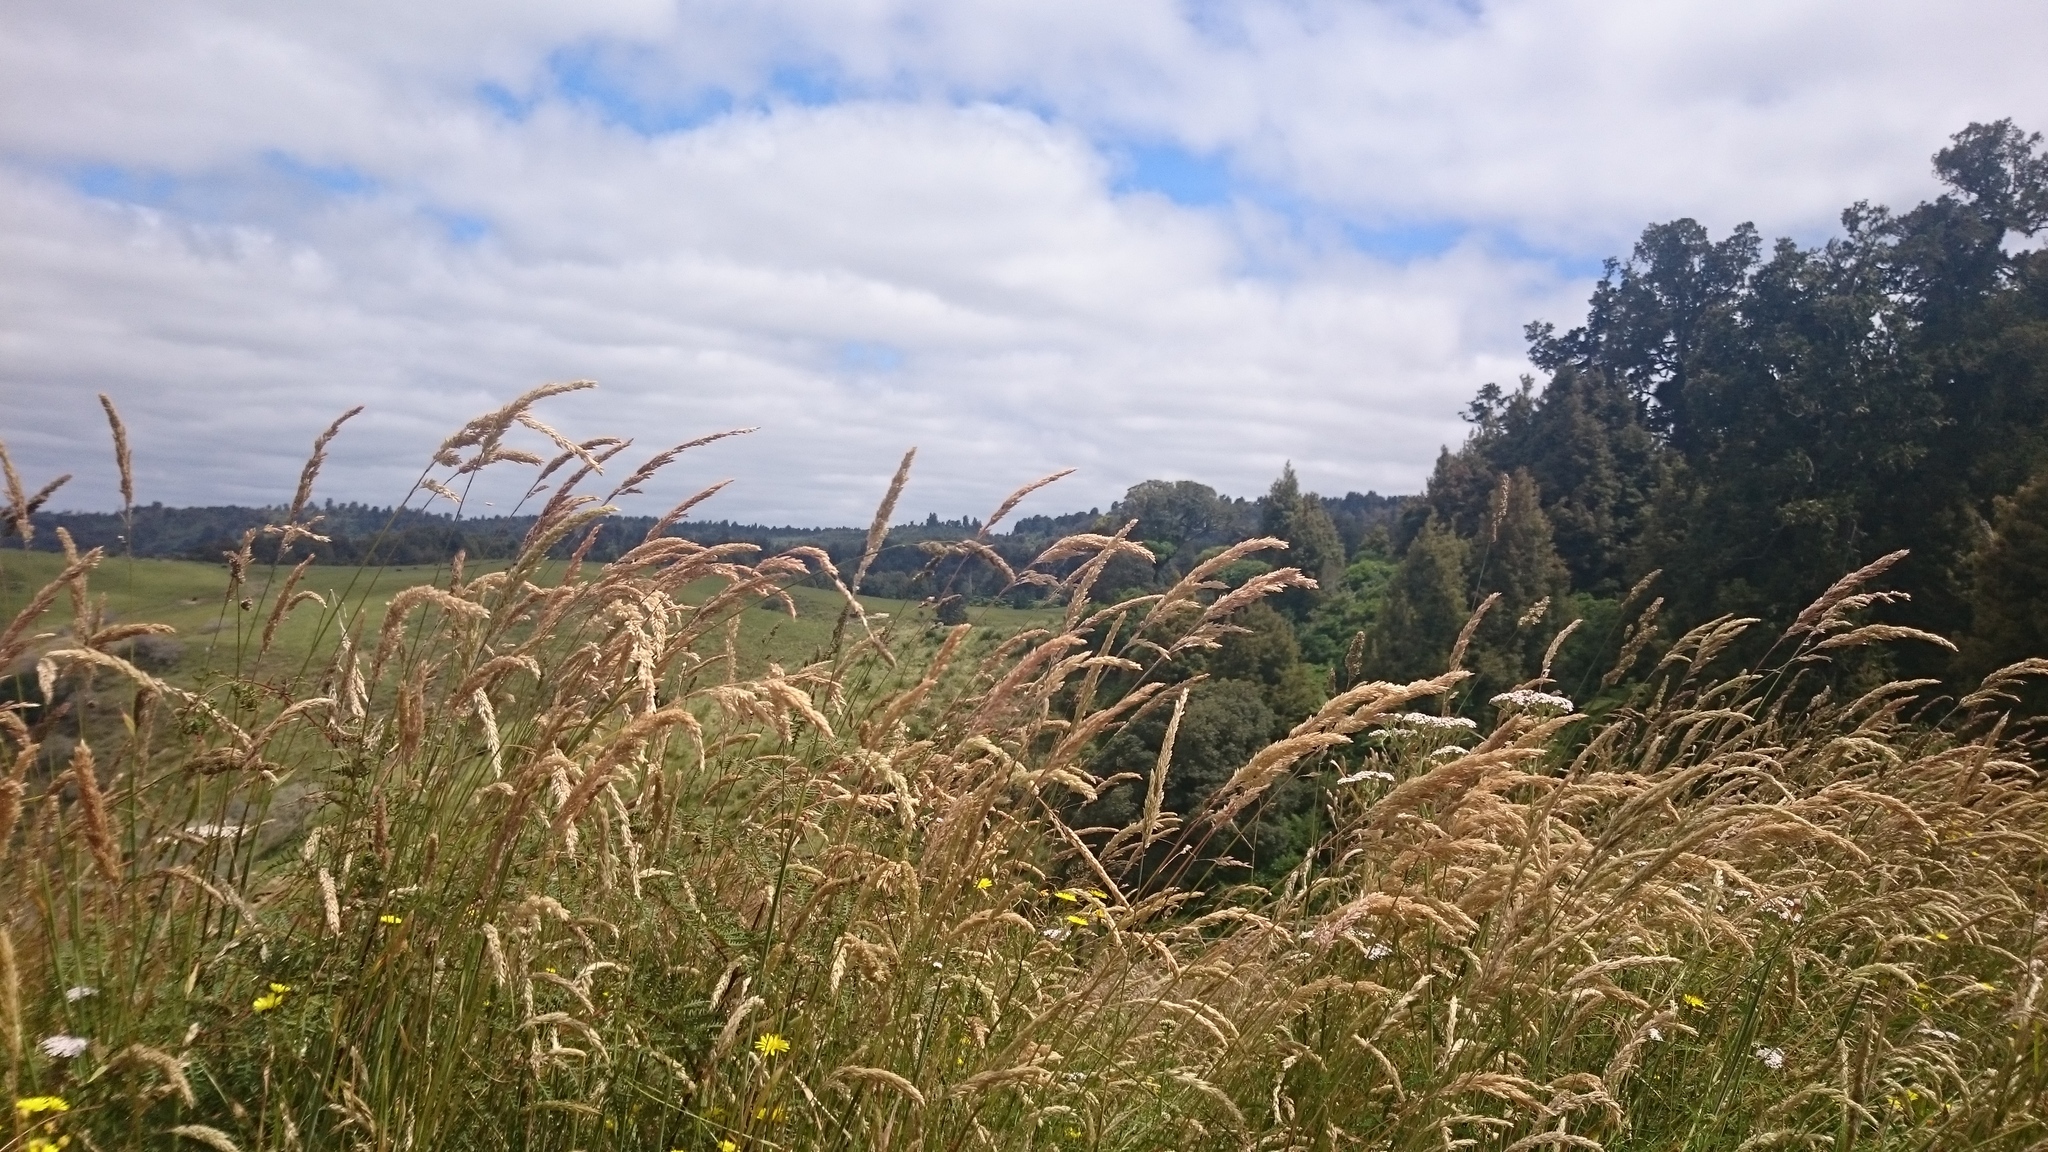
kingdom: Plantae
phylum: Tracheophyta
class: Liliopsida
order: Poales
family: Poaceae
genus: Dactylis
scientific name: Dactylis glomerata
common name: Orchardgrass
